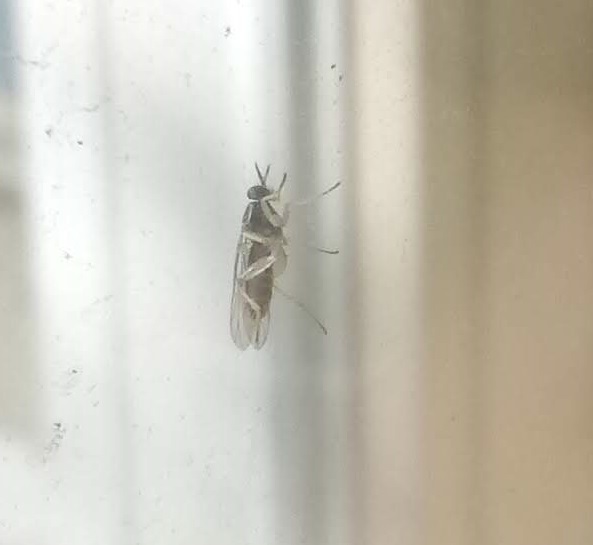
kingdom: Animalia
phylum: Arthropoda
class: Insecta
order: Diptera
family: Xylomyidae
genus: Solva
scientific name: Solva pallipes
